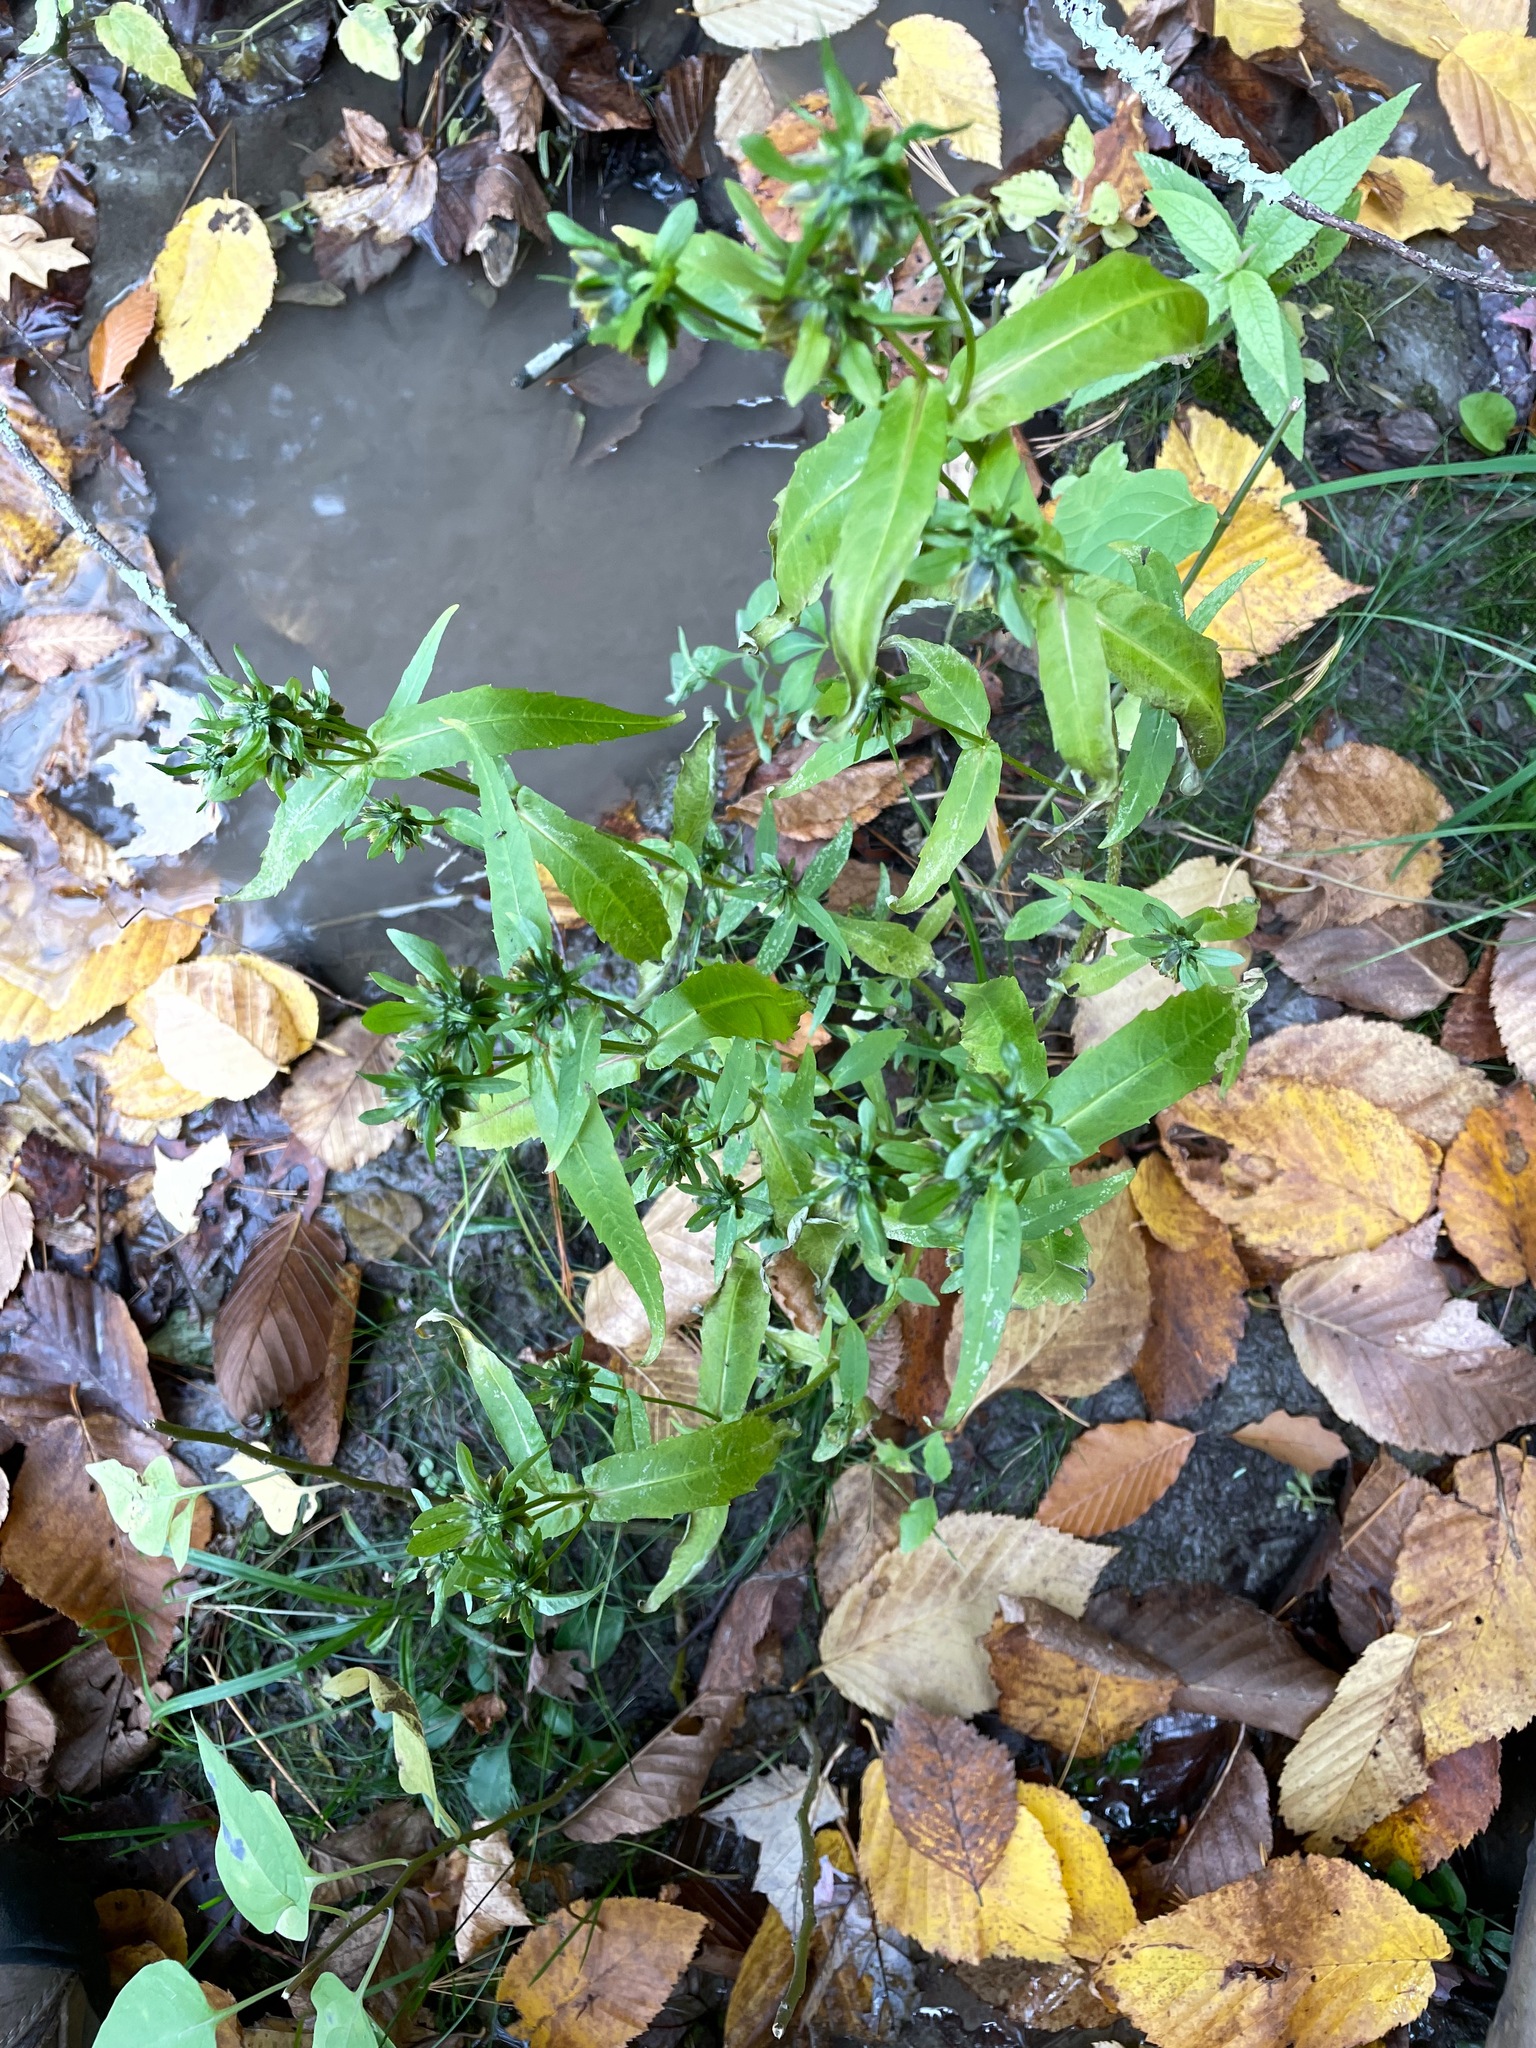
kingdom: Plantae
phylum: Tracheophyta
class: Magnoliopsida
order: Asterales
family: Asteraceae
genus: Bidens
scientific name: Bidens cernua
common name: Nodding bur-marigold
